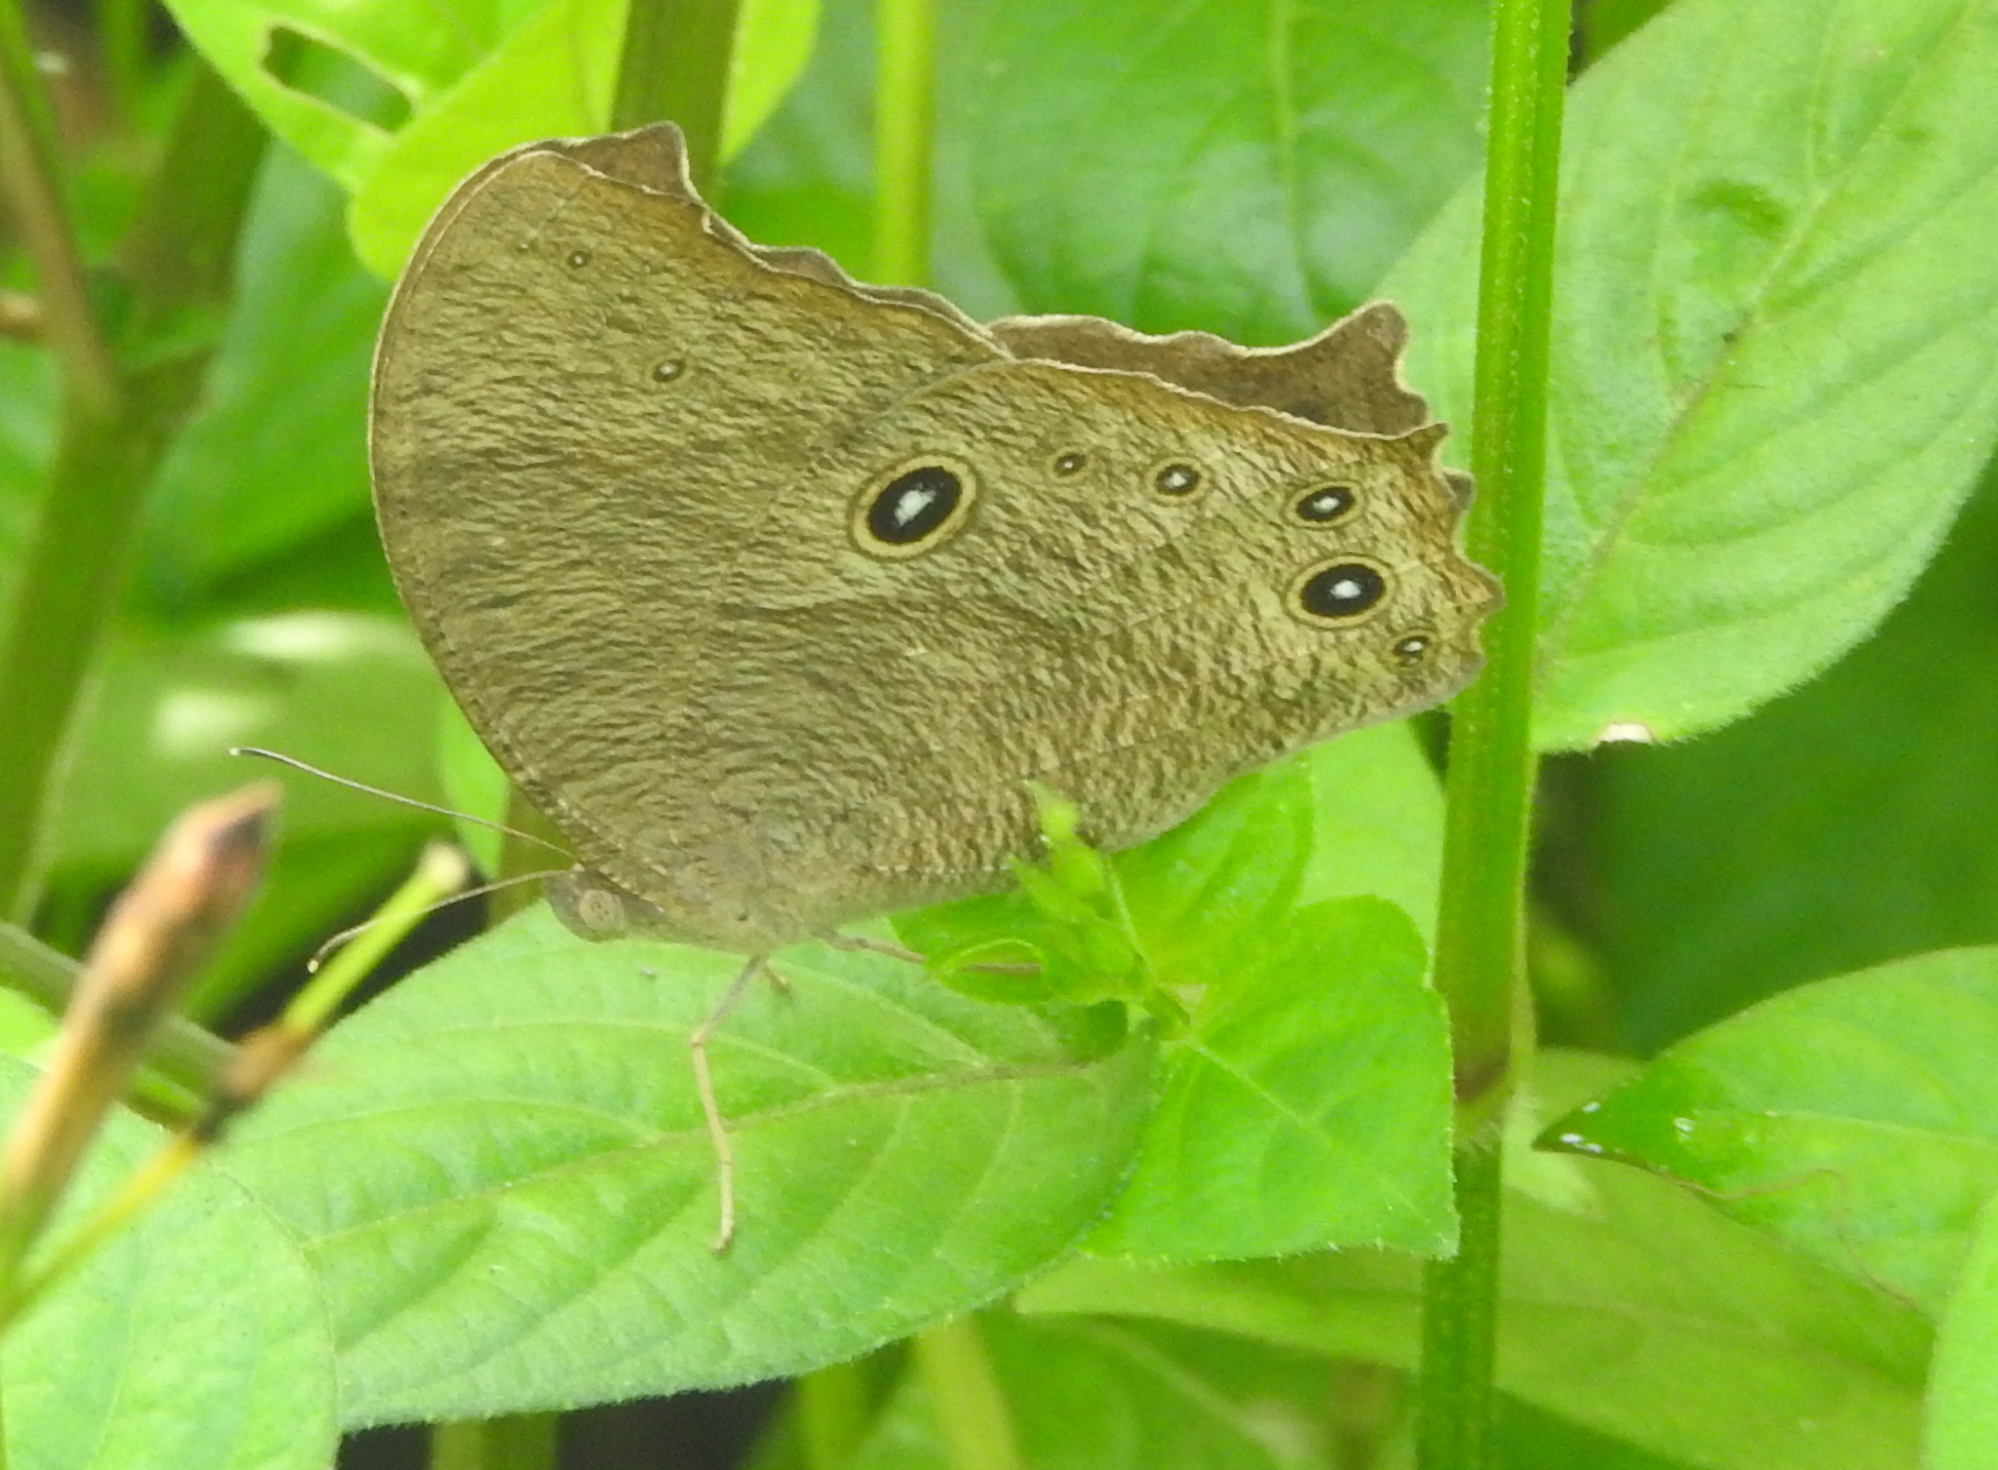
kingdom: Animalia
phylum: Arthropoda
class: Insecta
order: Lepidoptera
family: Nymphalidae
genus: Melanitis
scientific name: Melanitis leda
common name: Twilight brown
